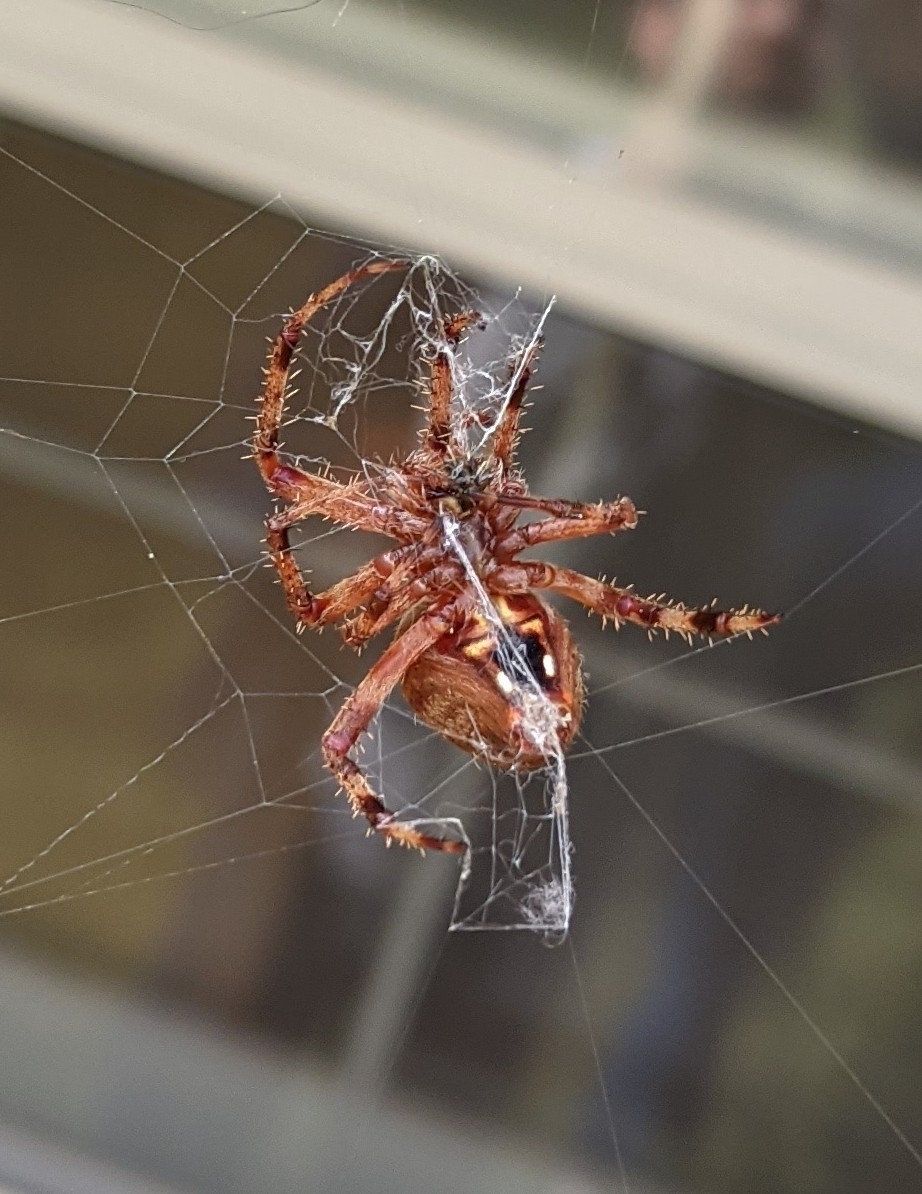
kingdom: Animalia
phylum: Arthropoda
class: Arachnida
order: Araneae
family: Araneidae
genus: Neoscona
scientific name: Neoscona crucifera
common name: Spotted orbweaver
